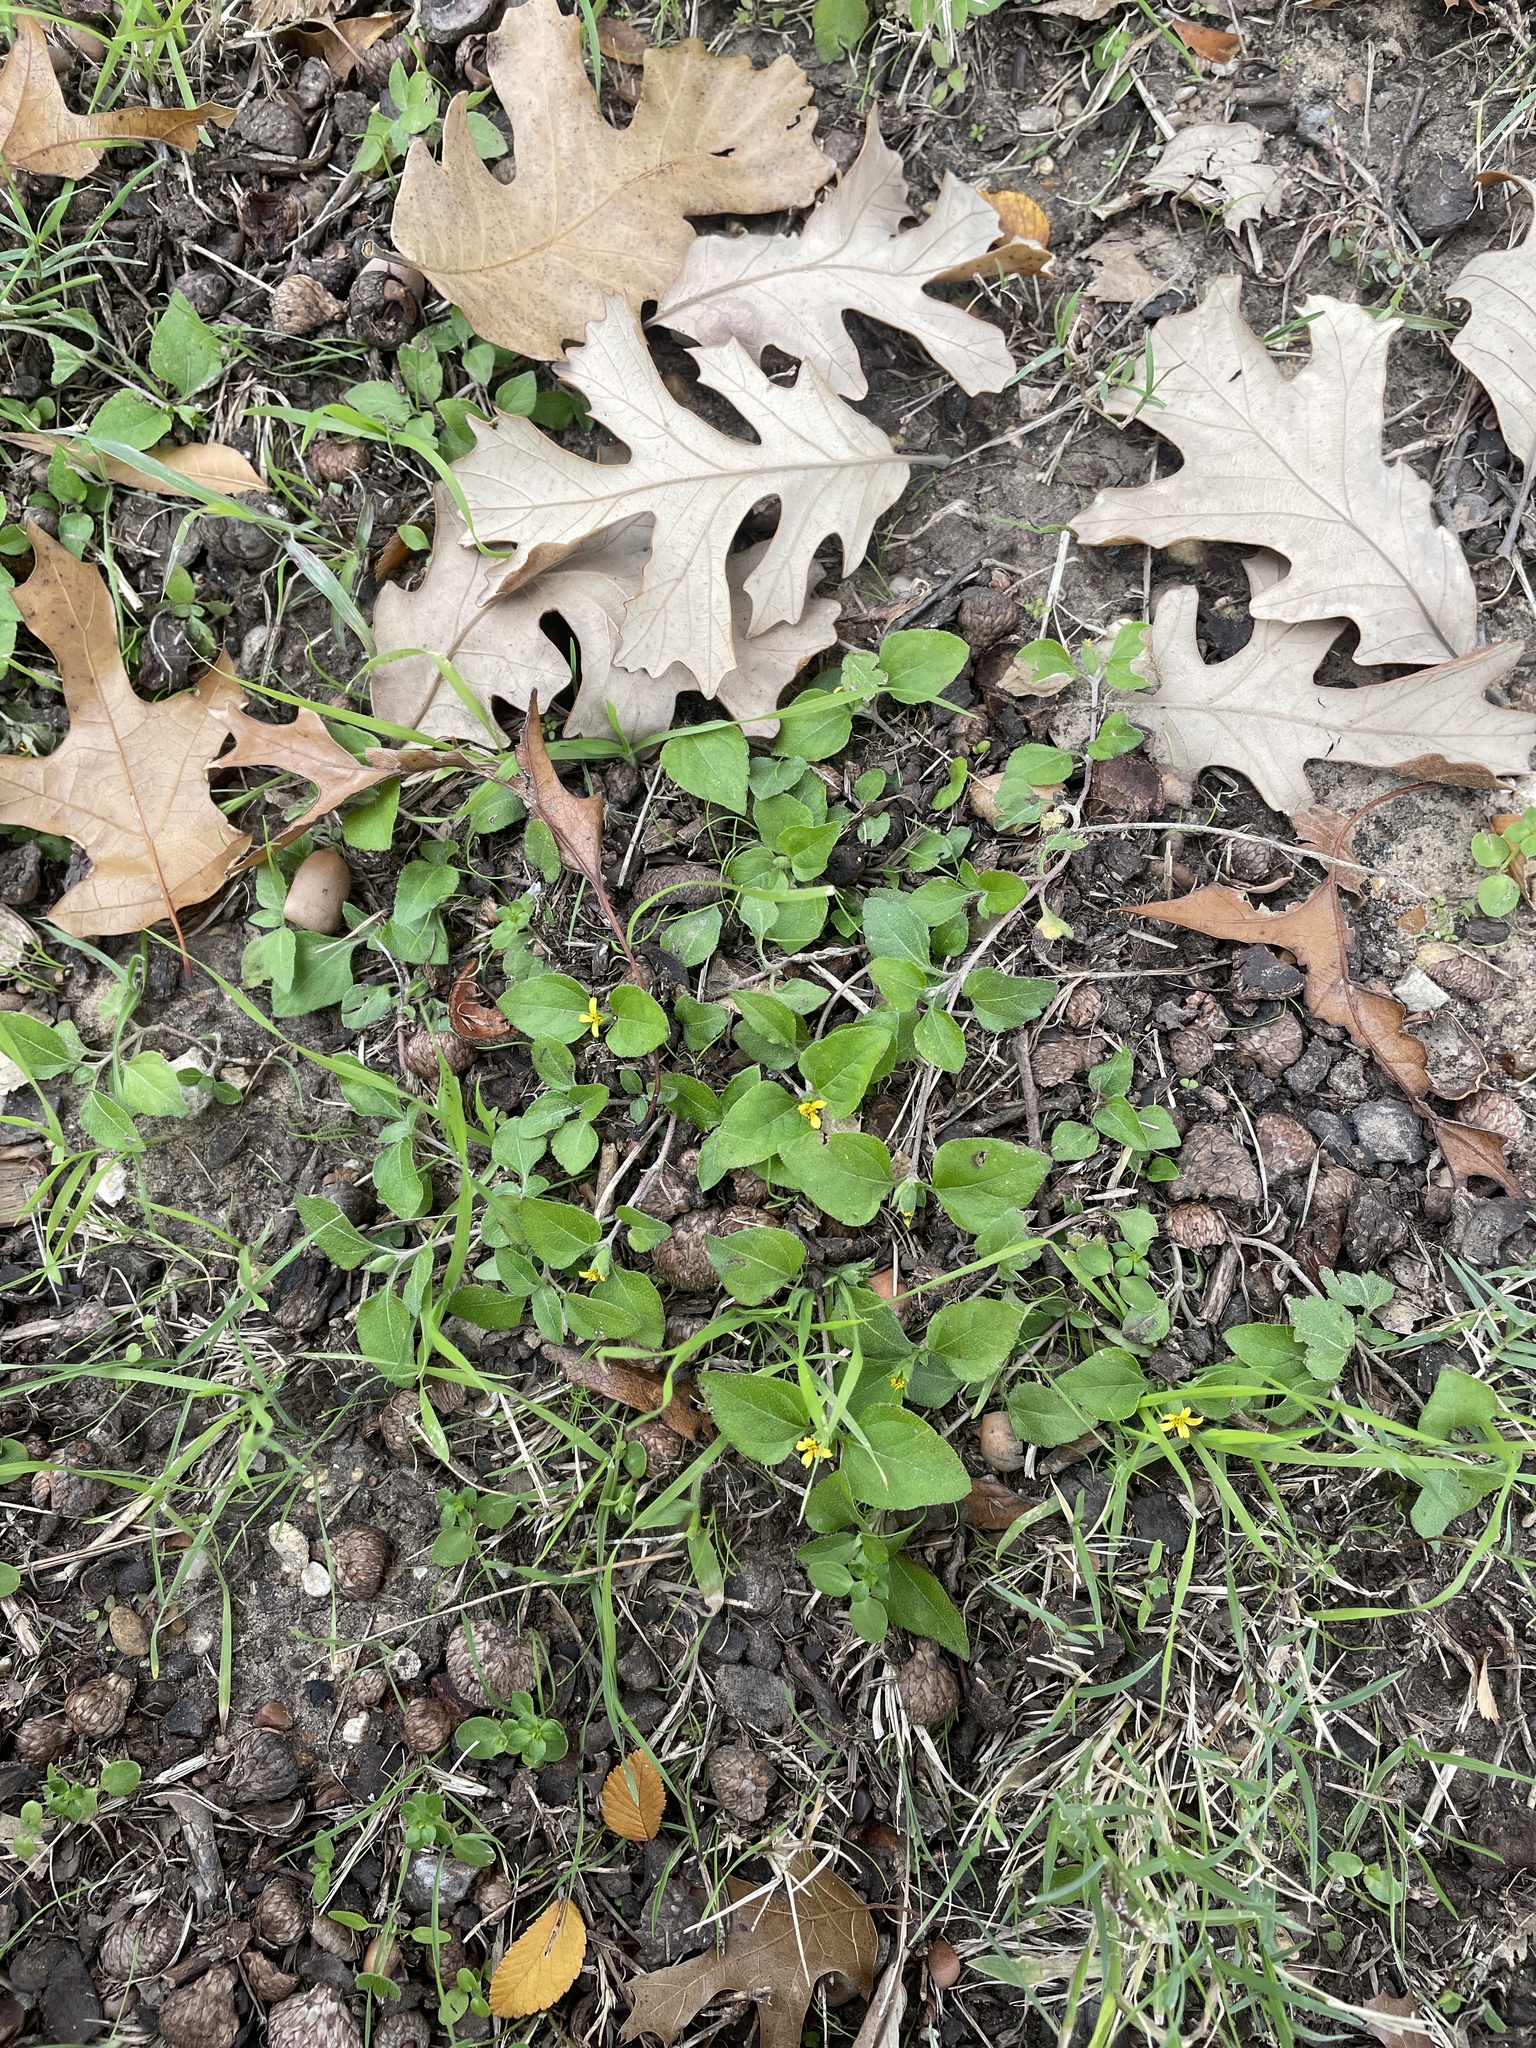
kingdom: Plantae
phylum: Tracheophyta
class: Magnoliopsida
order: Asterales
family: Asteraceae
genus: Calyptocarpus
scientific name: Calyptocarpus vialis
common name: Straggler daisy
